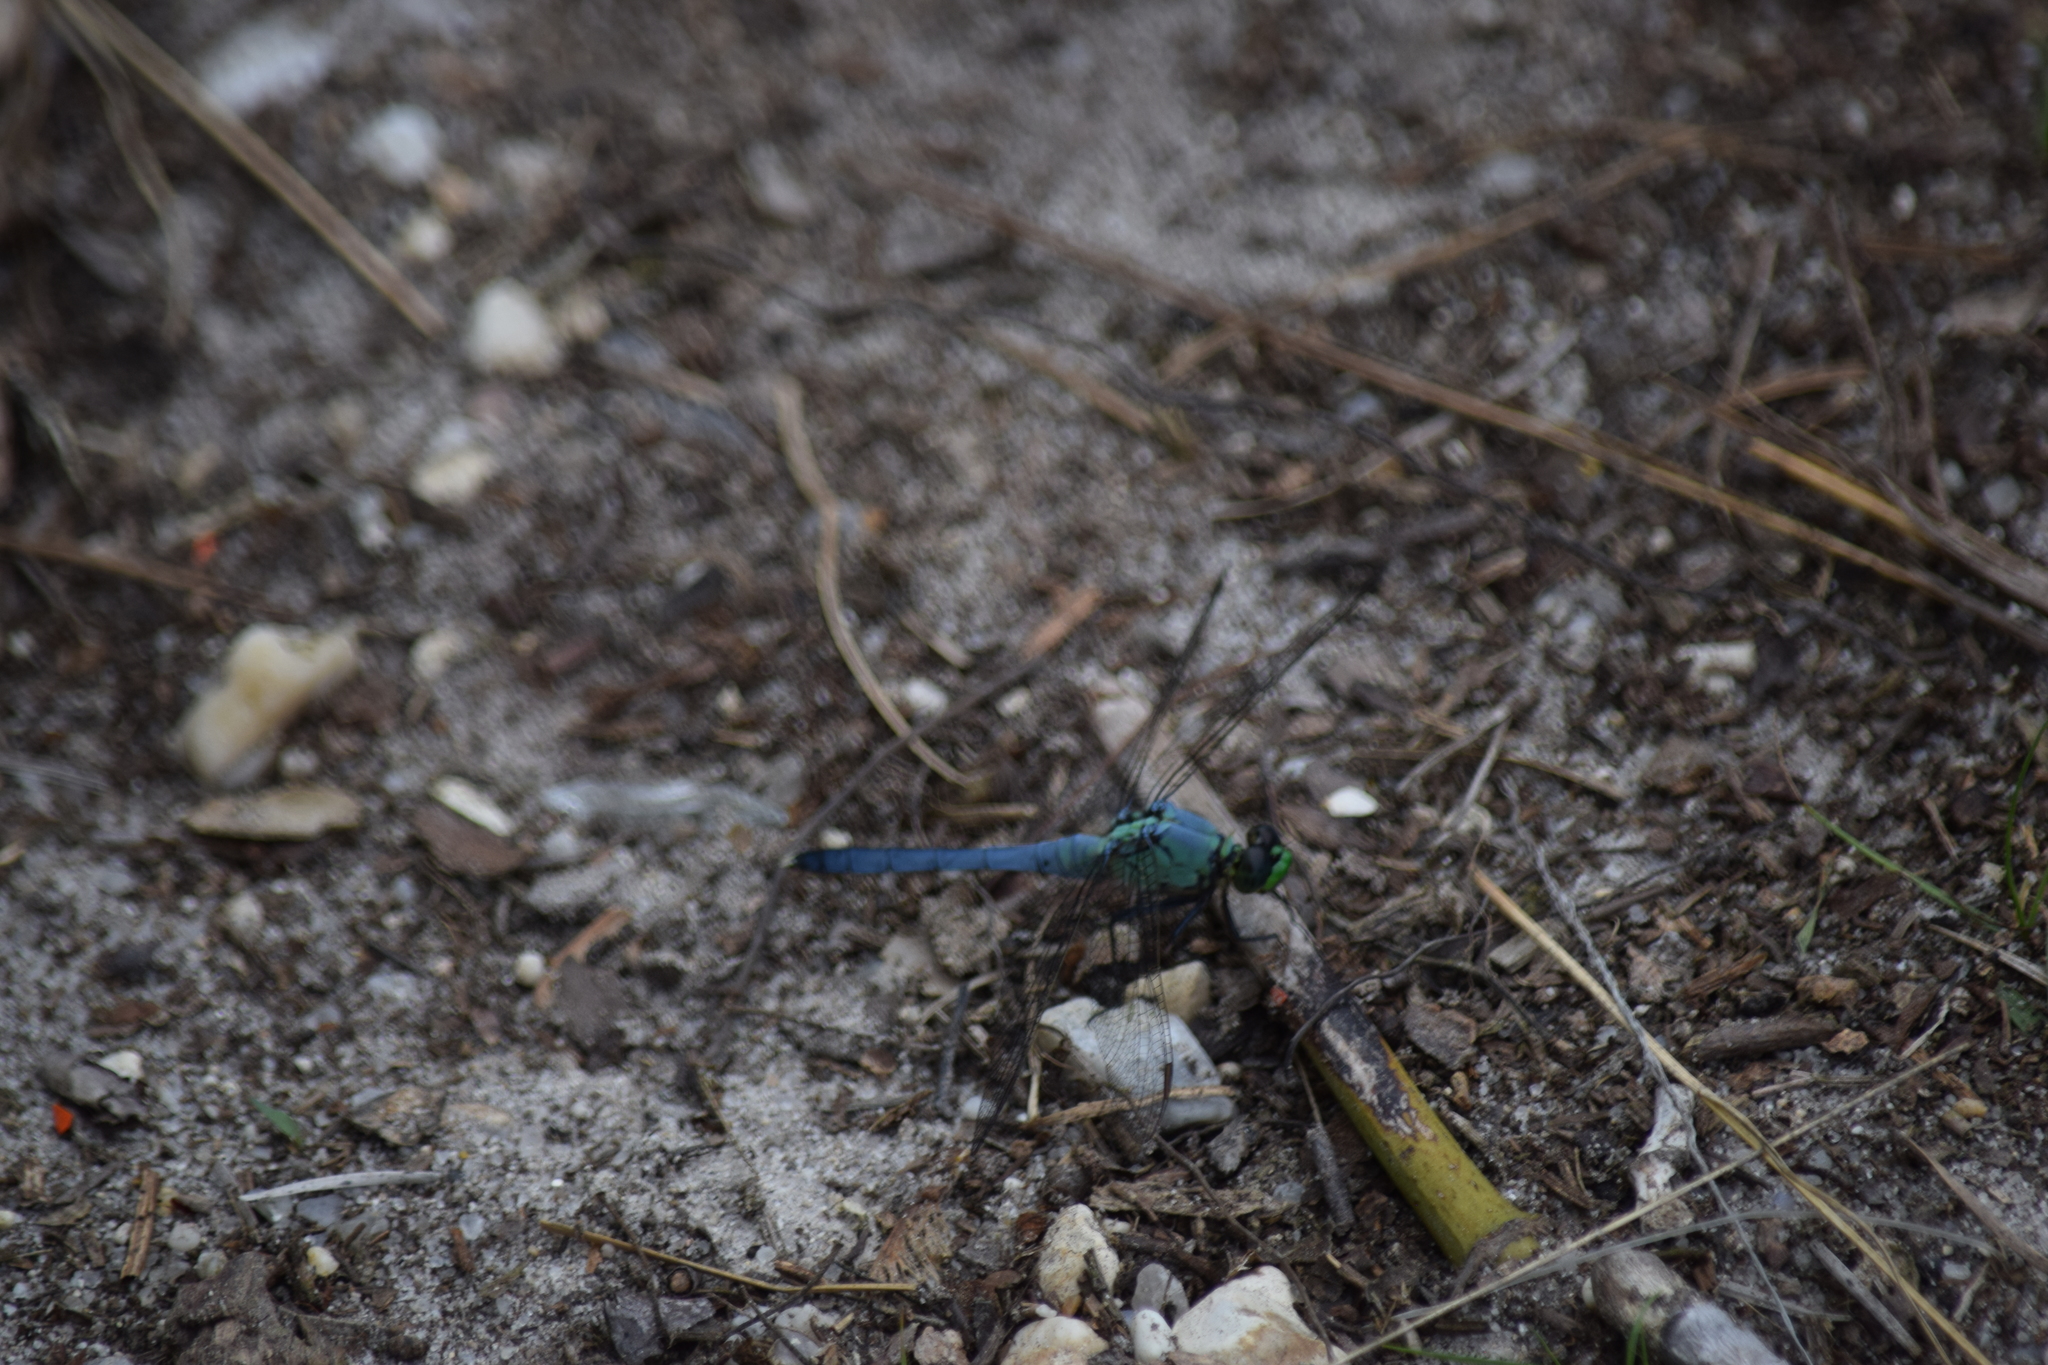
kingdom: Animalia
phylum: Arthropoda
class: Insecta
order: Odonata
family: Libellulidae
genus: Erythemis
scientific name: Erythemis simplicicollis
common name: Eastern pondhawk
